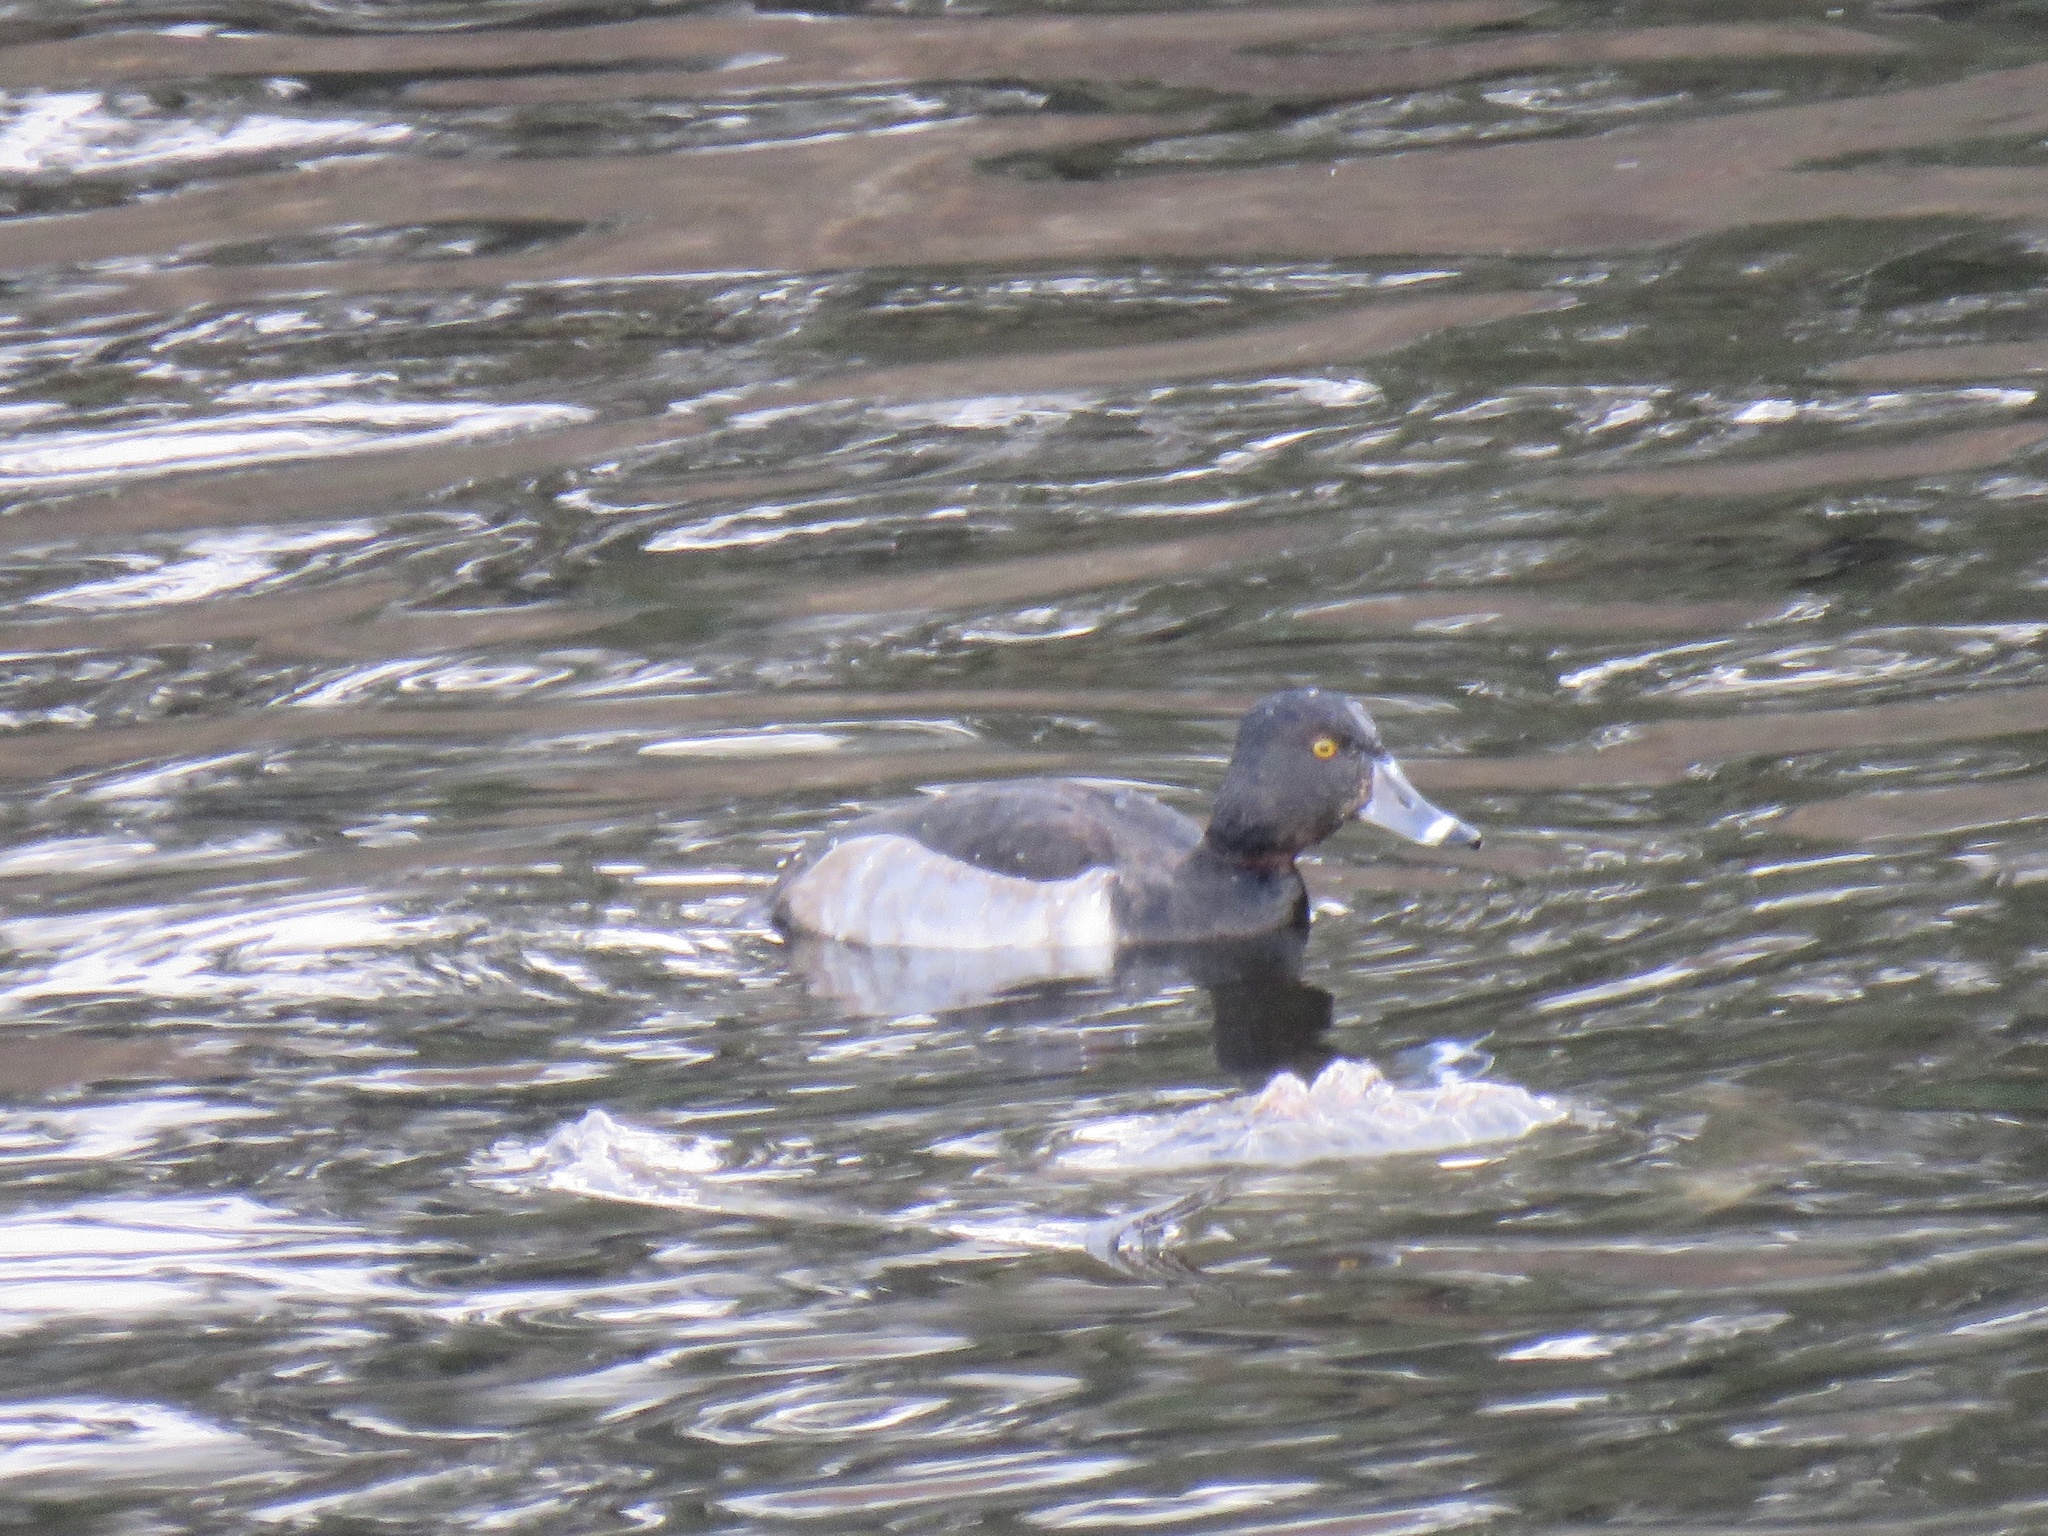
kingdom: Animalia
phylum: Chordata
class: Aves
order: Anseriformes
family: Anatidae
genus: Aythya
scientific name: Aythya collaris
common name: Ring-necked duck
